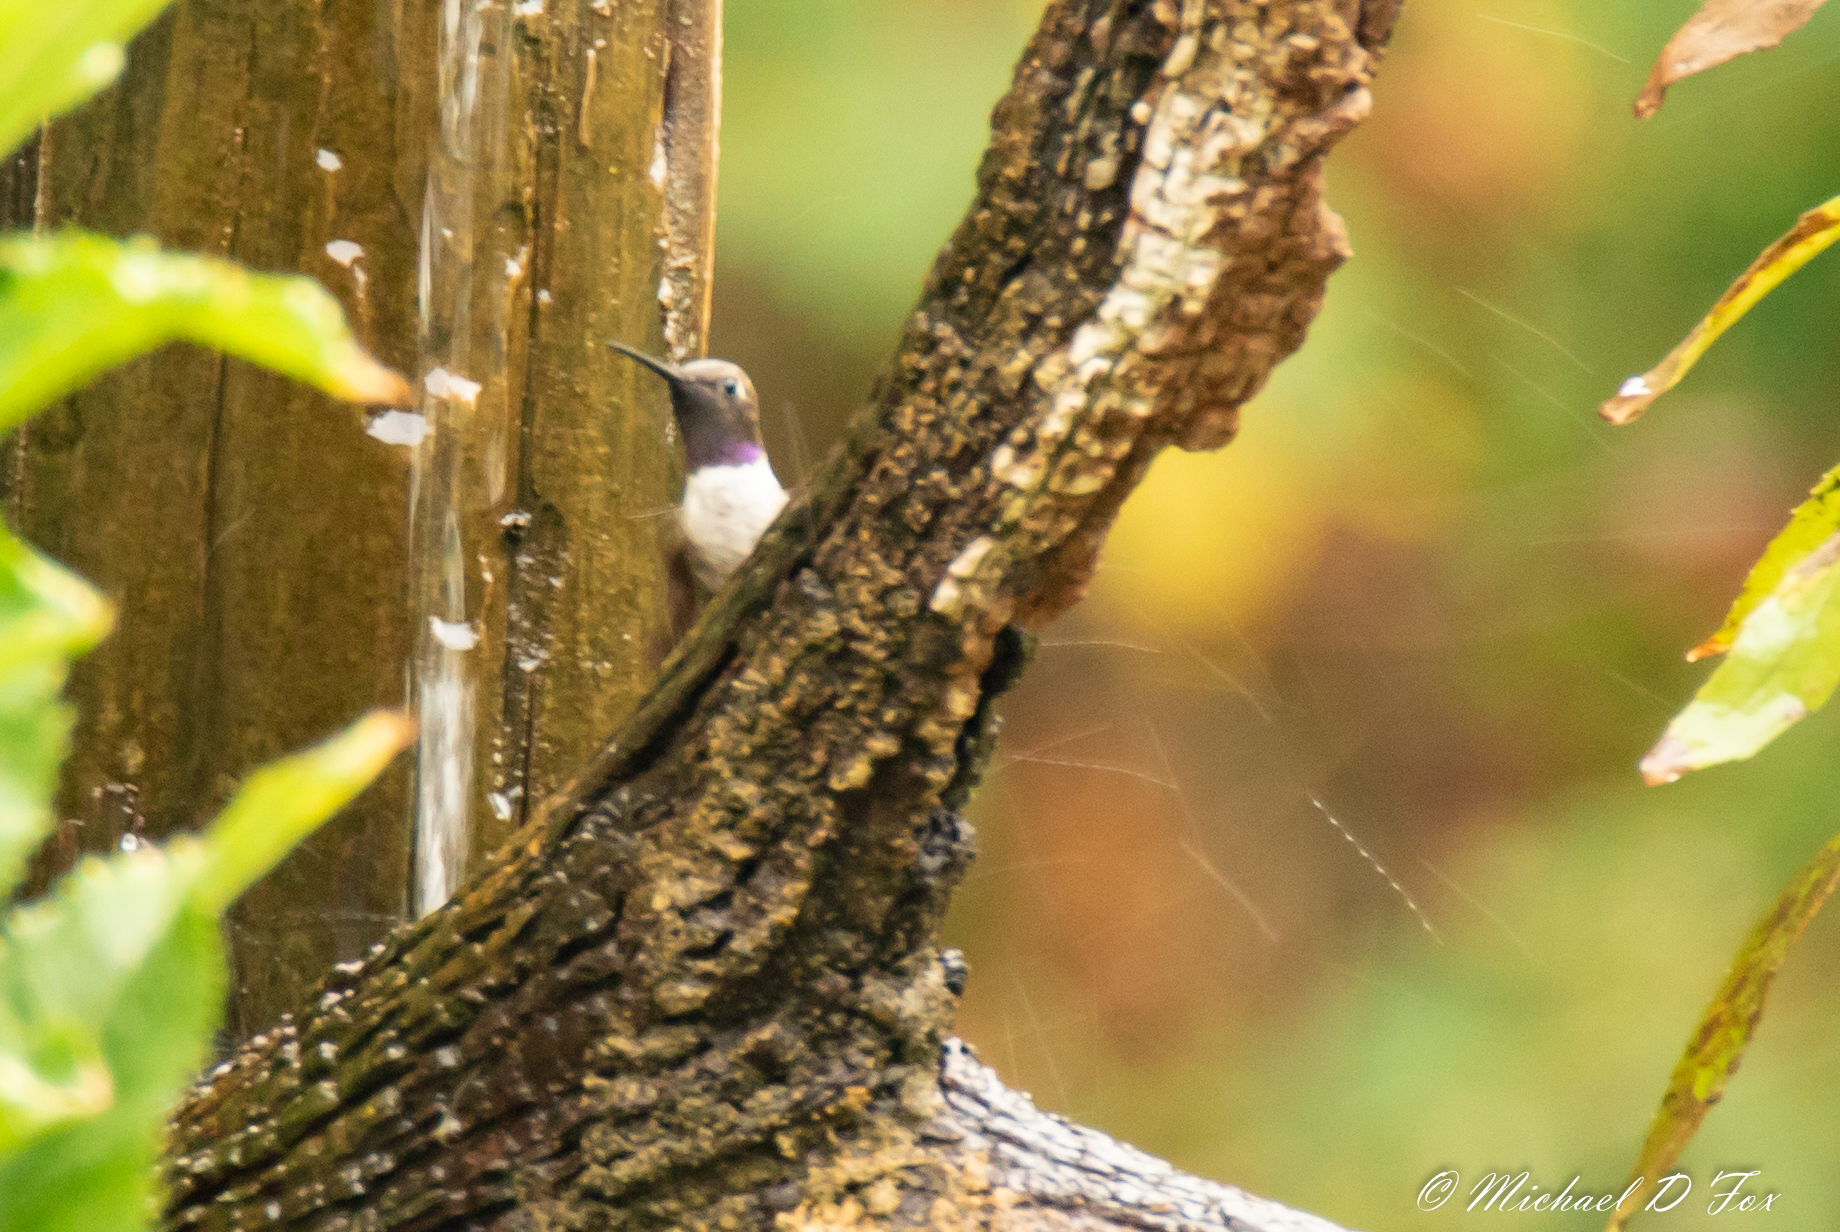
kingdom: Animalia
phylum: Chordata
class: Aves
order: Apodiformes
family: Trochilidae
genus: Archilochus
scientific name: Archilochus alexandri
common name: Black-chinned hummingbird
